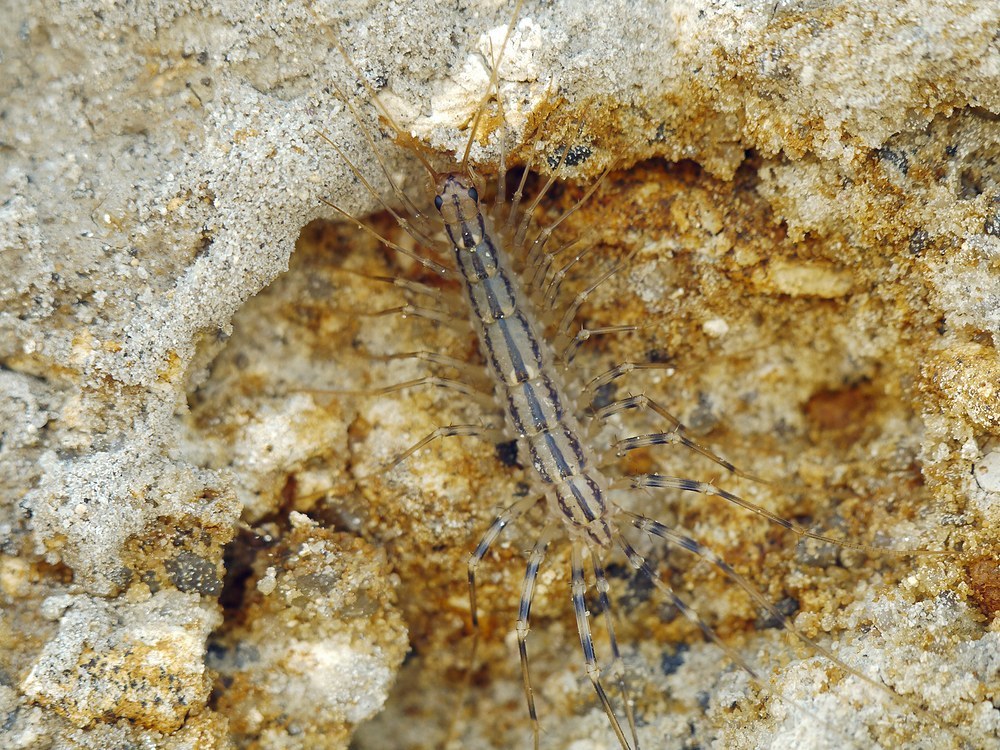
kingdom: Animalia
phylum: Arthropoda
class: Chilopoda
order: Scutigeromorpha
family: Scutigeridae
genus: Scutigera
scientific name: Scutigera coleoptrata
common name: House centipede
